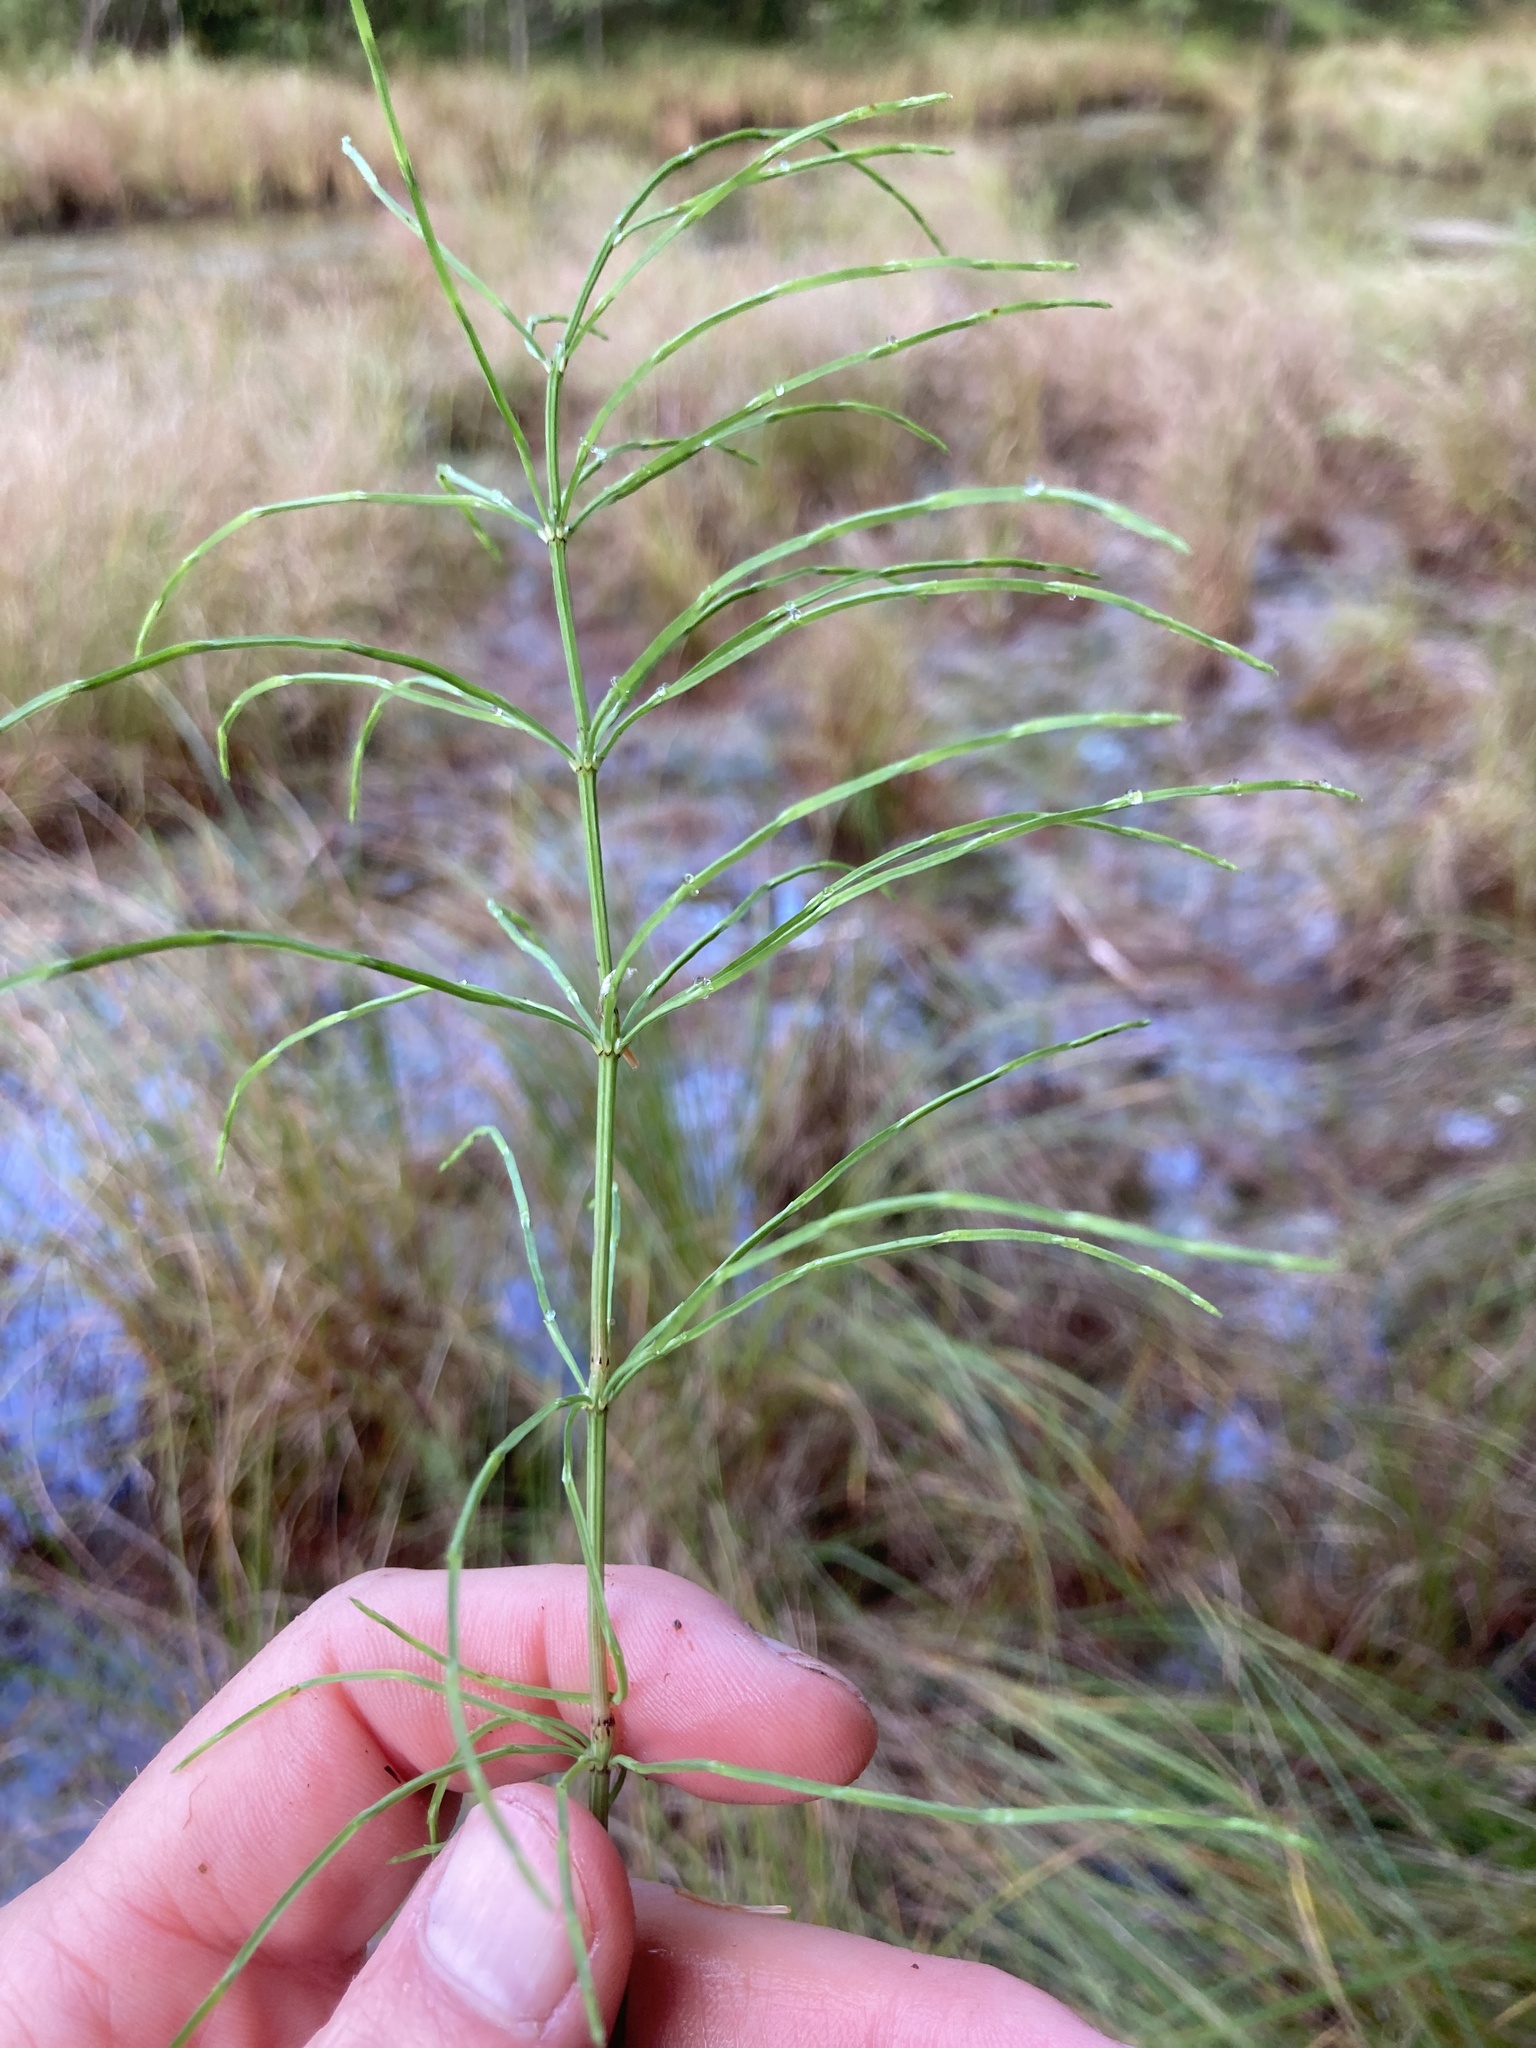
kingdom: Plantae
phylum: Tracheophyta
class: Polypodiopsida
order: Equisetales
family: Equisetaceae
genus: Equisetum
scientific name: Equisetum arvense
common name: Field horsetail
